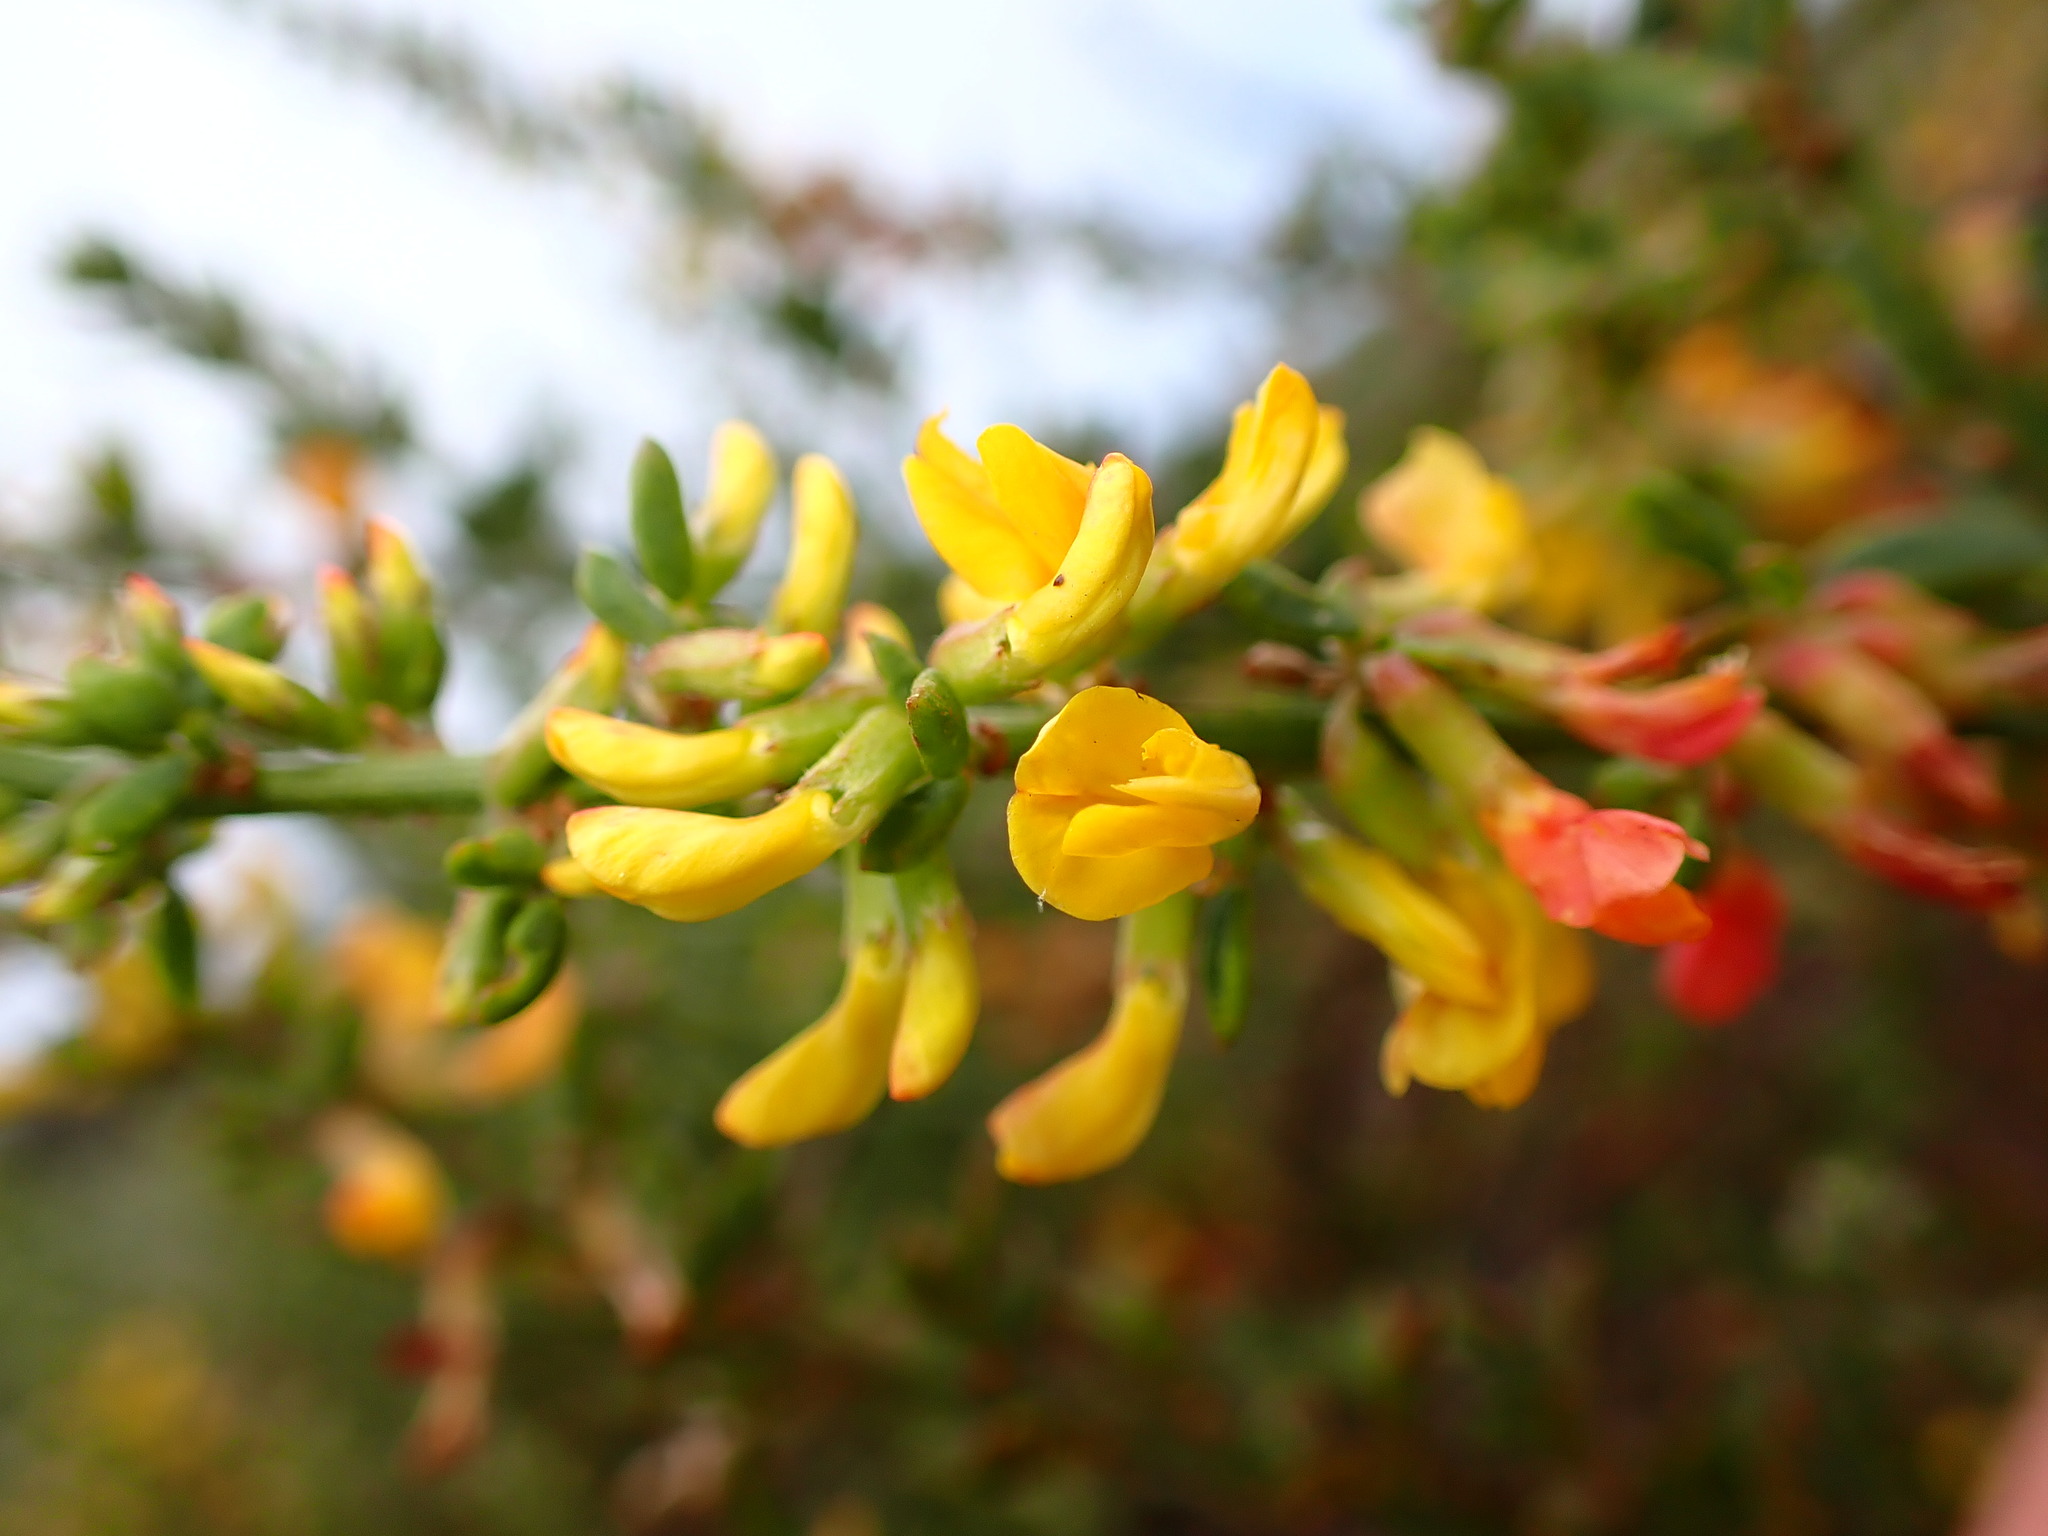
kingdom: Plantae
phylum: Tracheophyta
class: Magnoliopsida
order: Fabales
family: Fabaceae
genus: Acmispon
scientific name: Acmispon glaber
